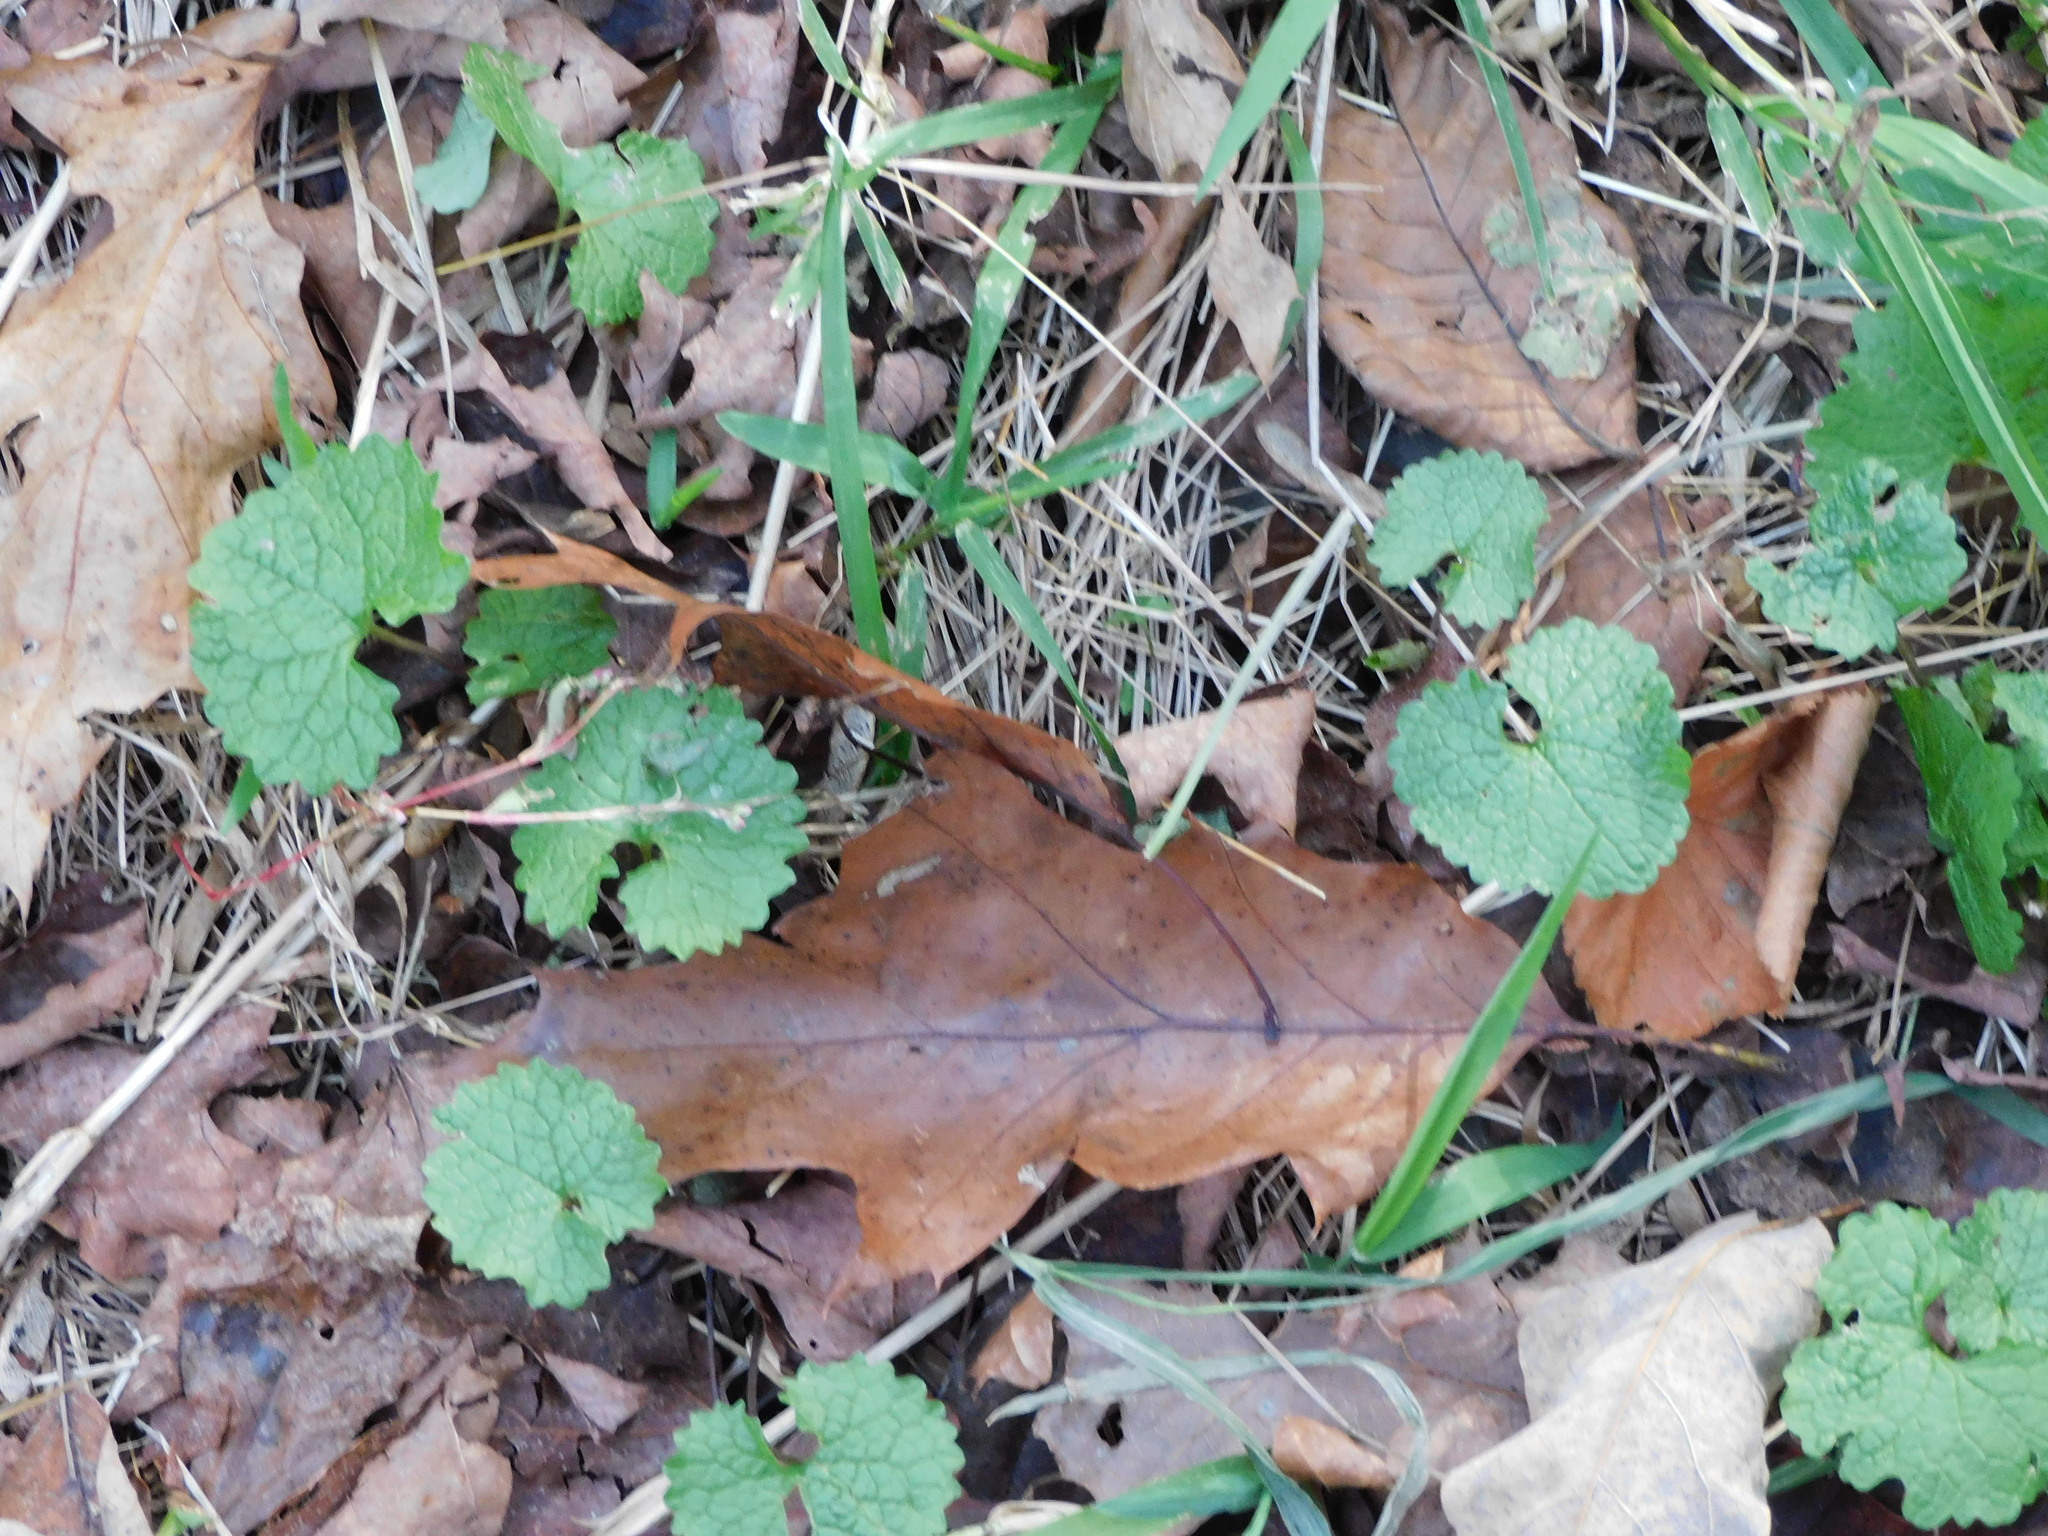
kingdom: Plantae
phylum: Tracheophyta
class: Magnoliopsida
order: Brassicales
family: Brassicaceae
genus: Alliaria
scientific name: Alliaria petiolata
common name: Garlic mustard
